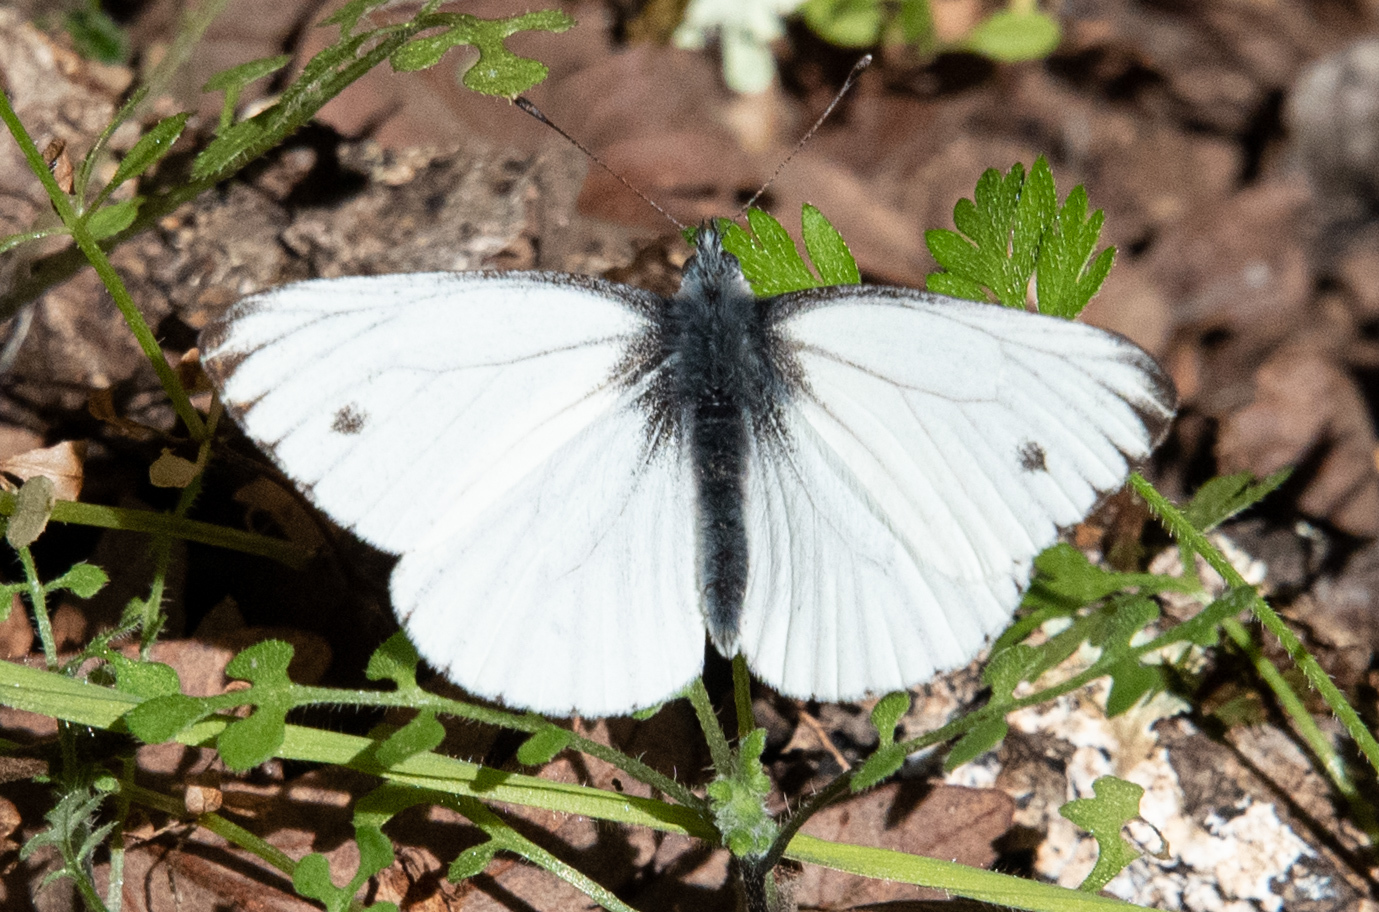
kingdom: Animalia
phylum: Arthropoda
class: Insecta
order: Lepidoptera
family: Pieridae
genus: Pieris
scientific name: Pieris marginalis
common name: Margined white
